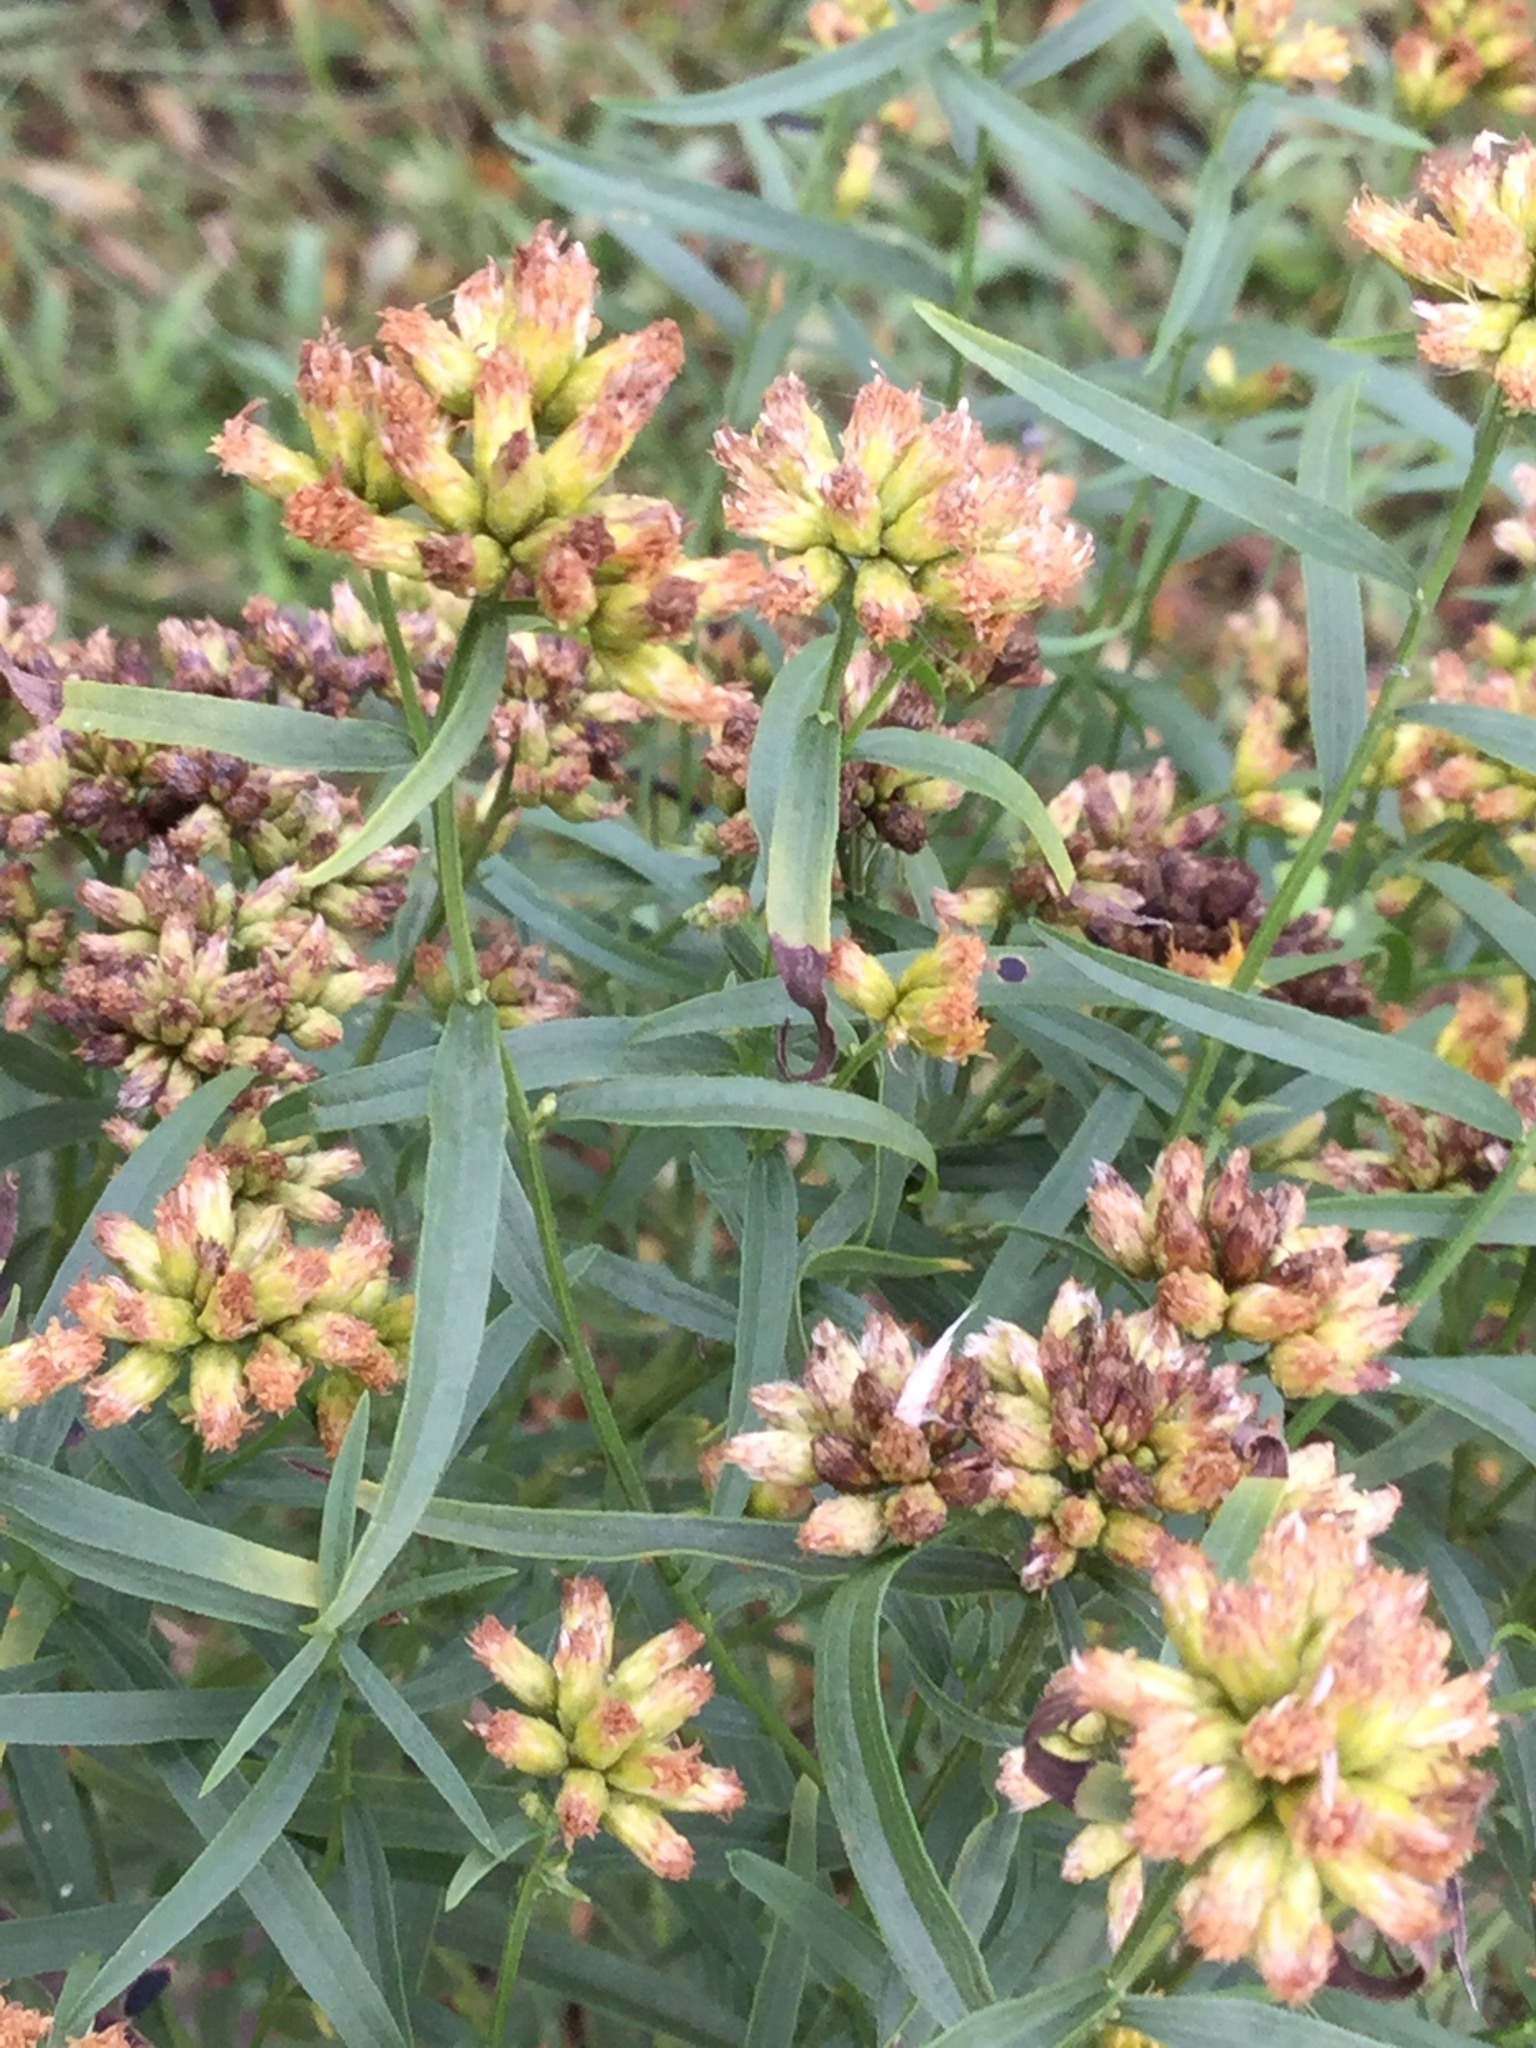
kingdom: Plantae
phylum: Tracheophyta
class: Magnoliopsida
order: Asterales
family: Asteraceae
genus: Euthamia
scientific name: Euthamia graminifolia
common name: Common goldentop
